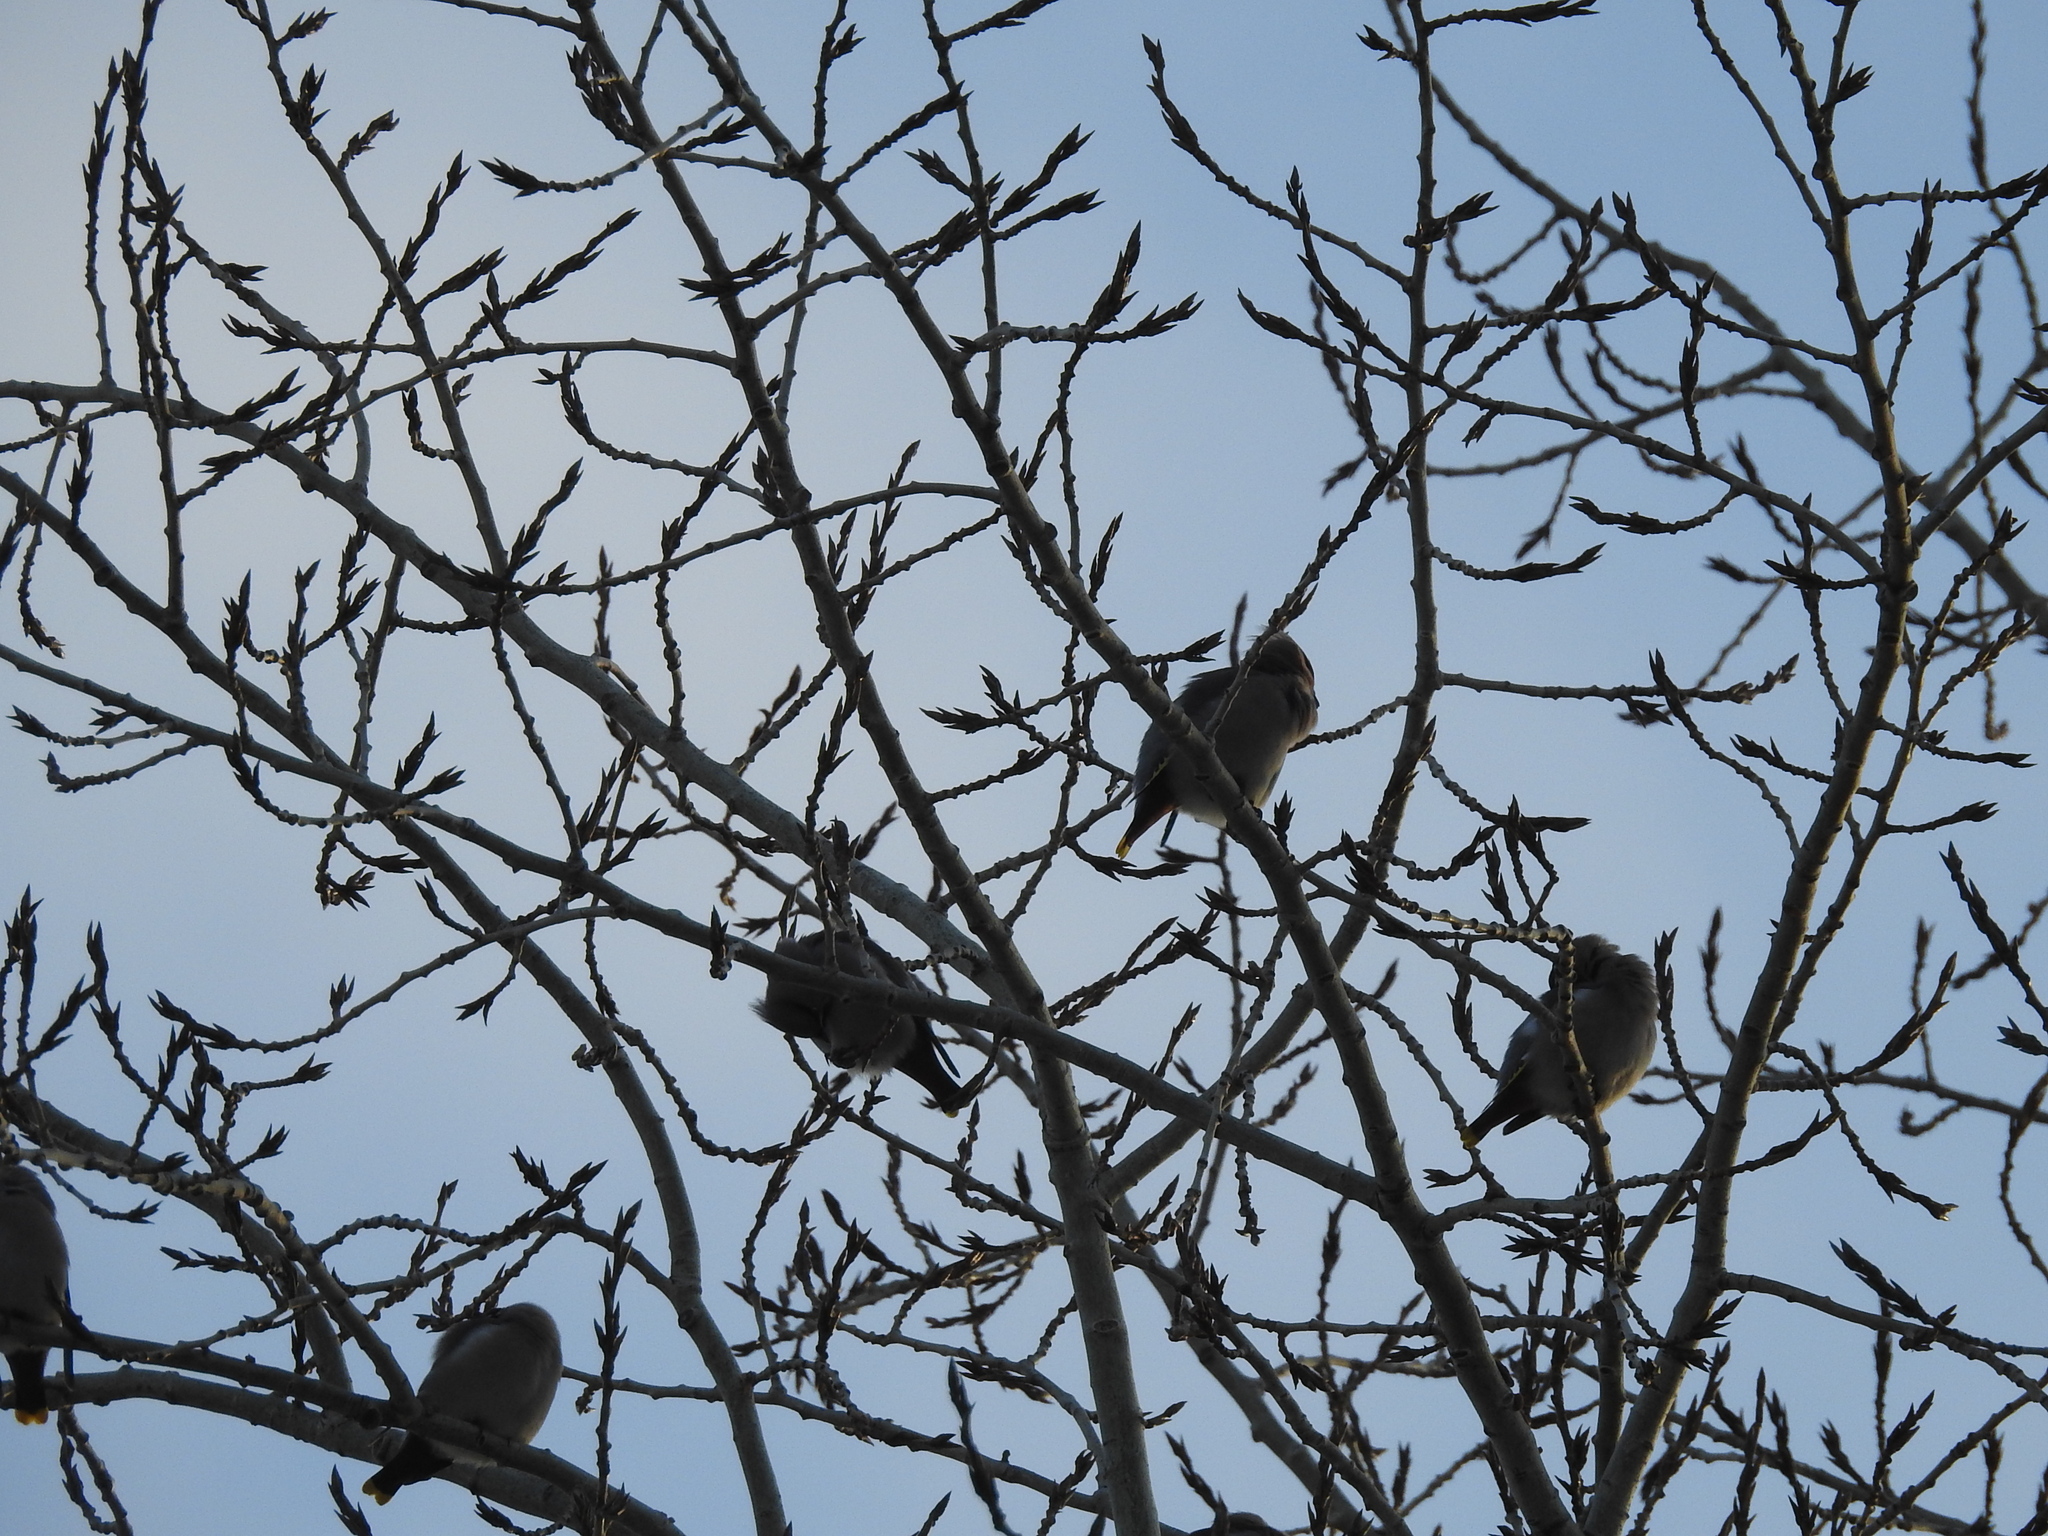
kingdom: Animalia
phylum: Chordata
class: Aves
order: Passeriformes
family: Bombycillidae
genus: Bombycilla
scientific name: Bombycilla garrulus
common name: Bohemian waxwing
